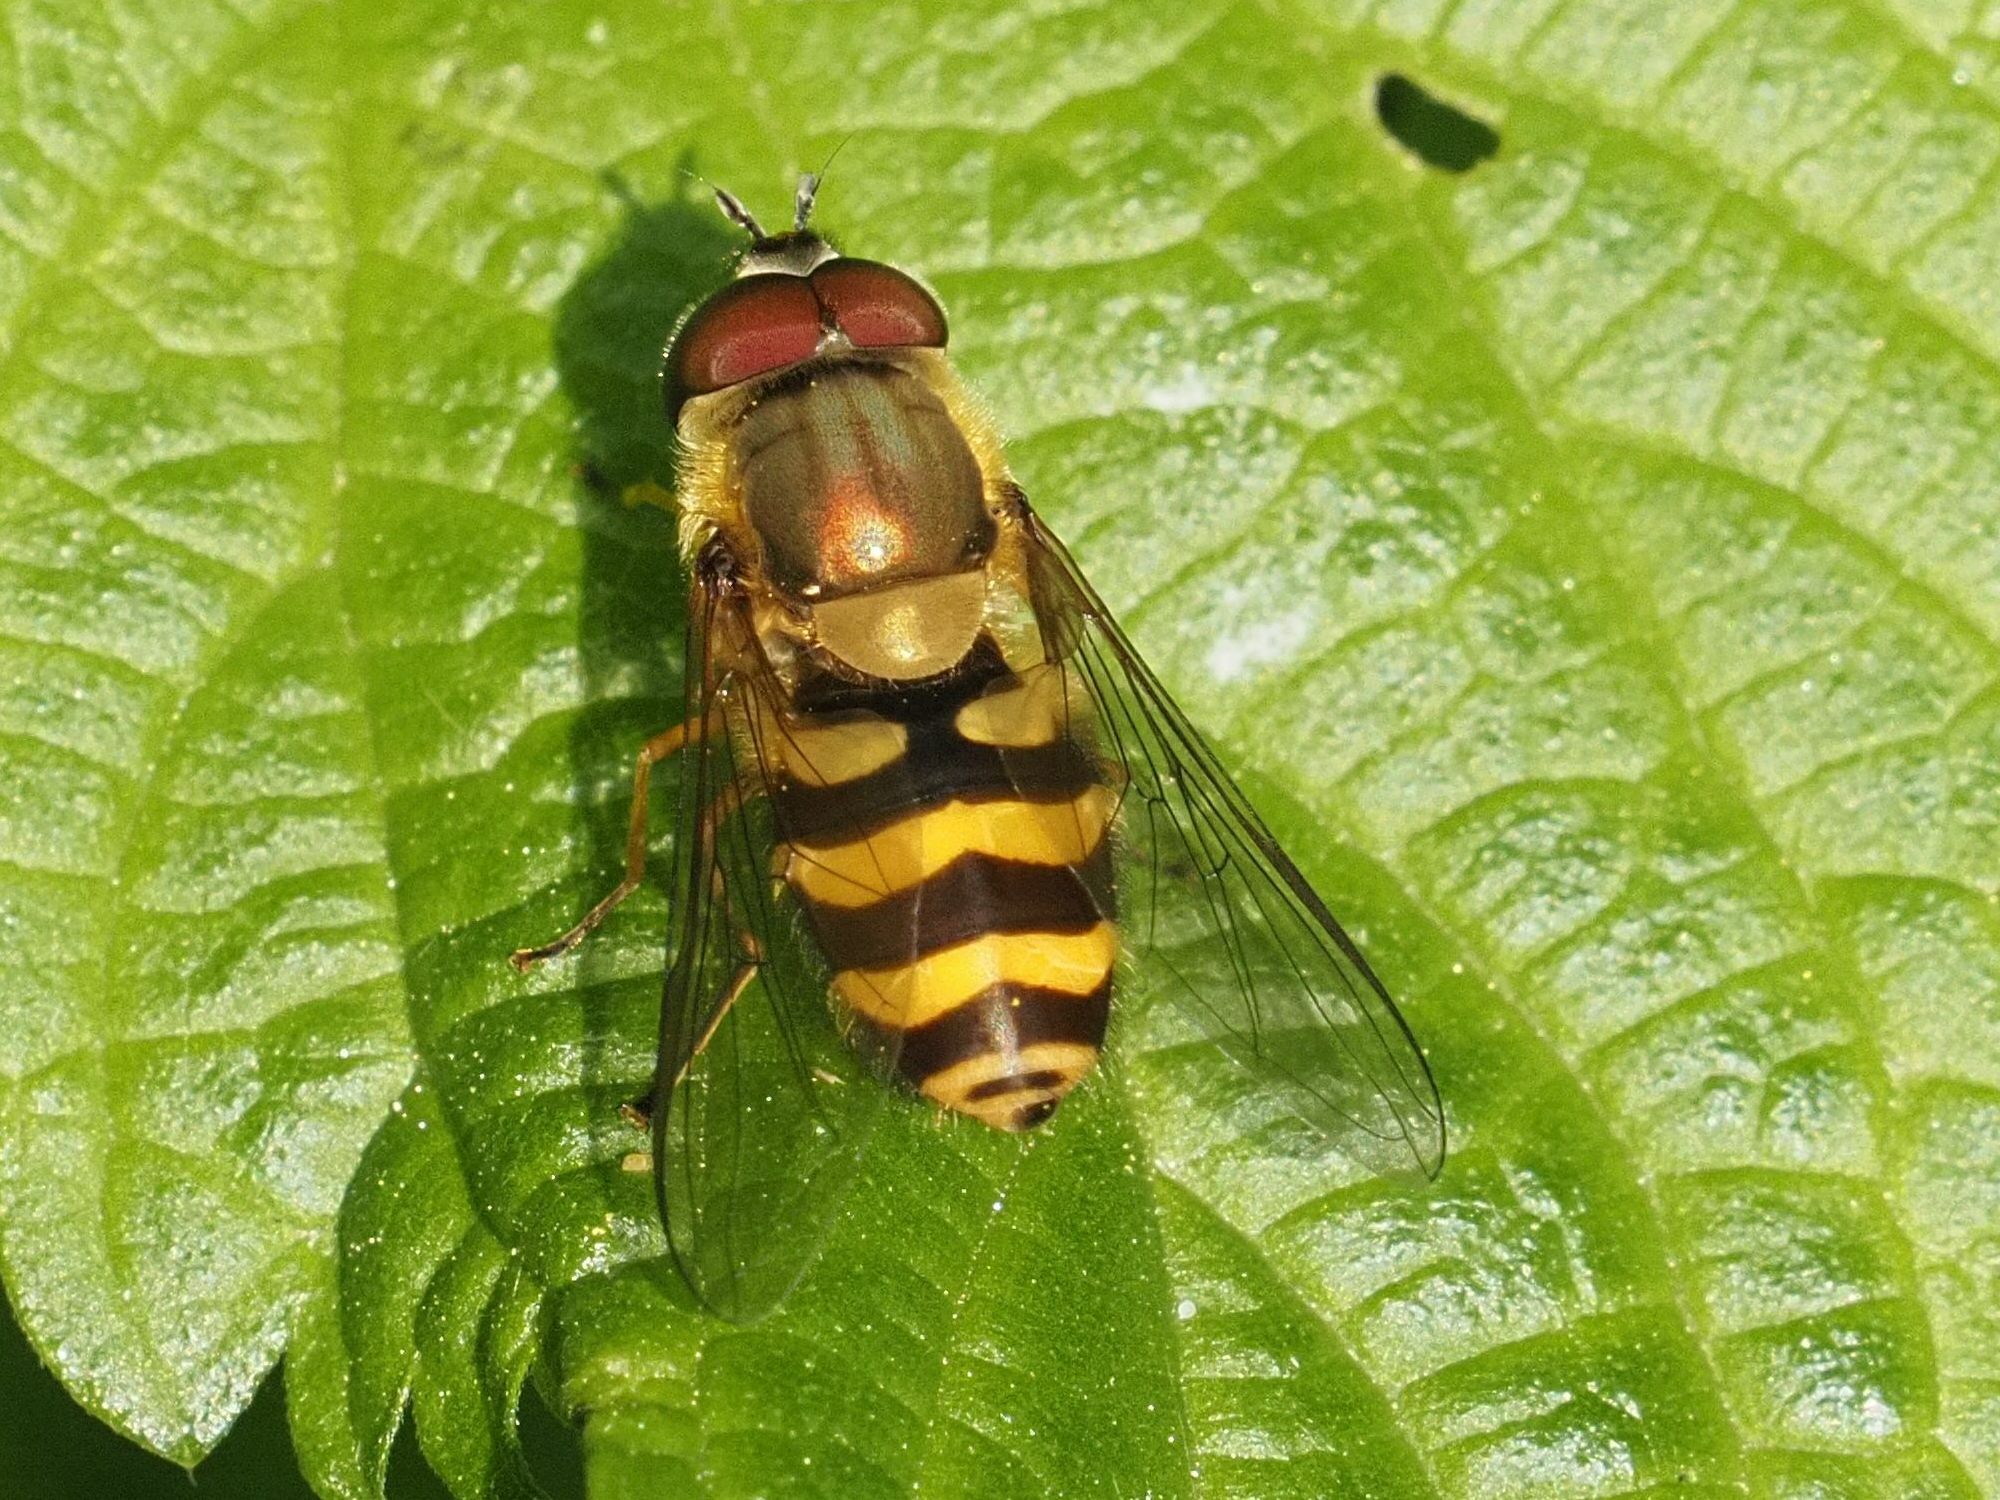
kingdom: Animalia
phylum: Arthropoda
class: Insecta
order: Diptera
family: Syrphidae
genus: Syrphus
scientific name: Syrphus torvus
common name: Hairy-eyed flower fly
